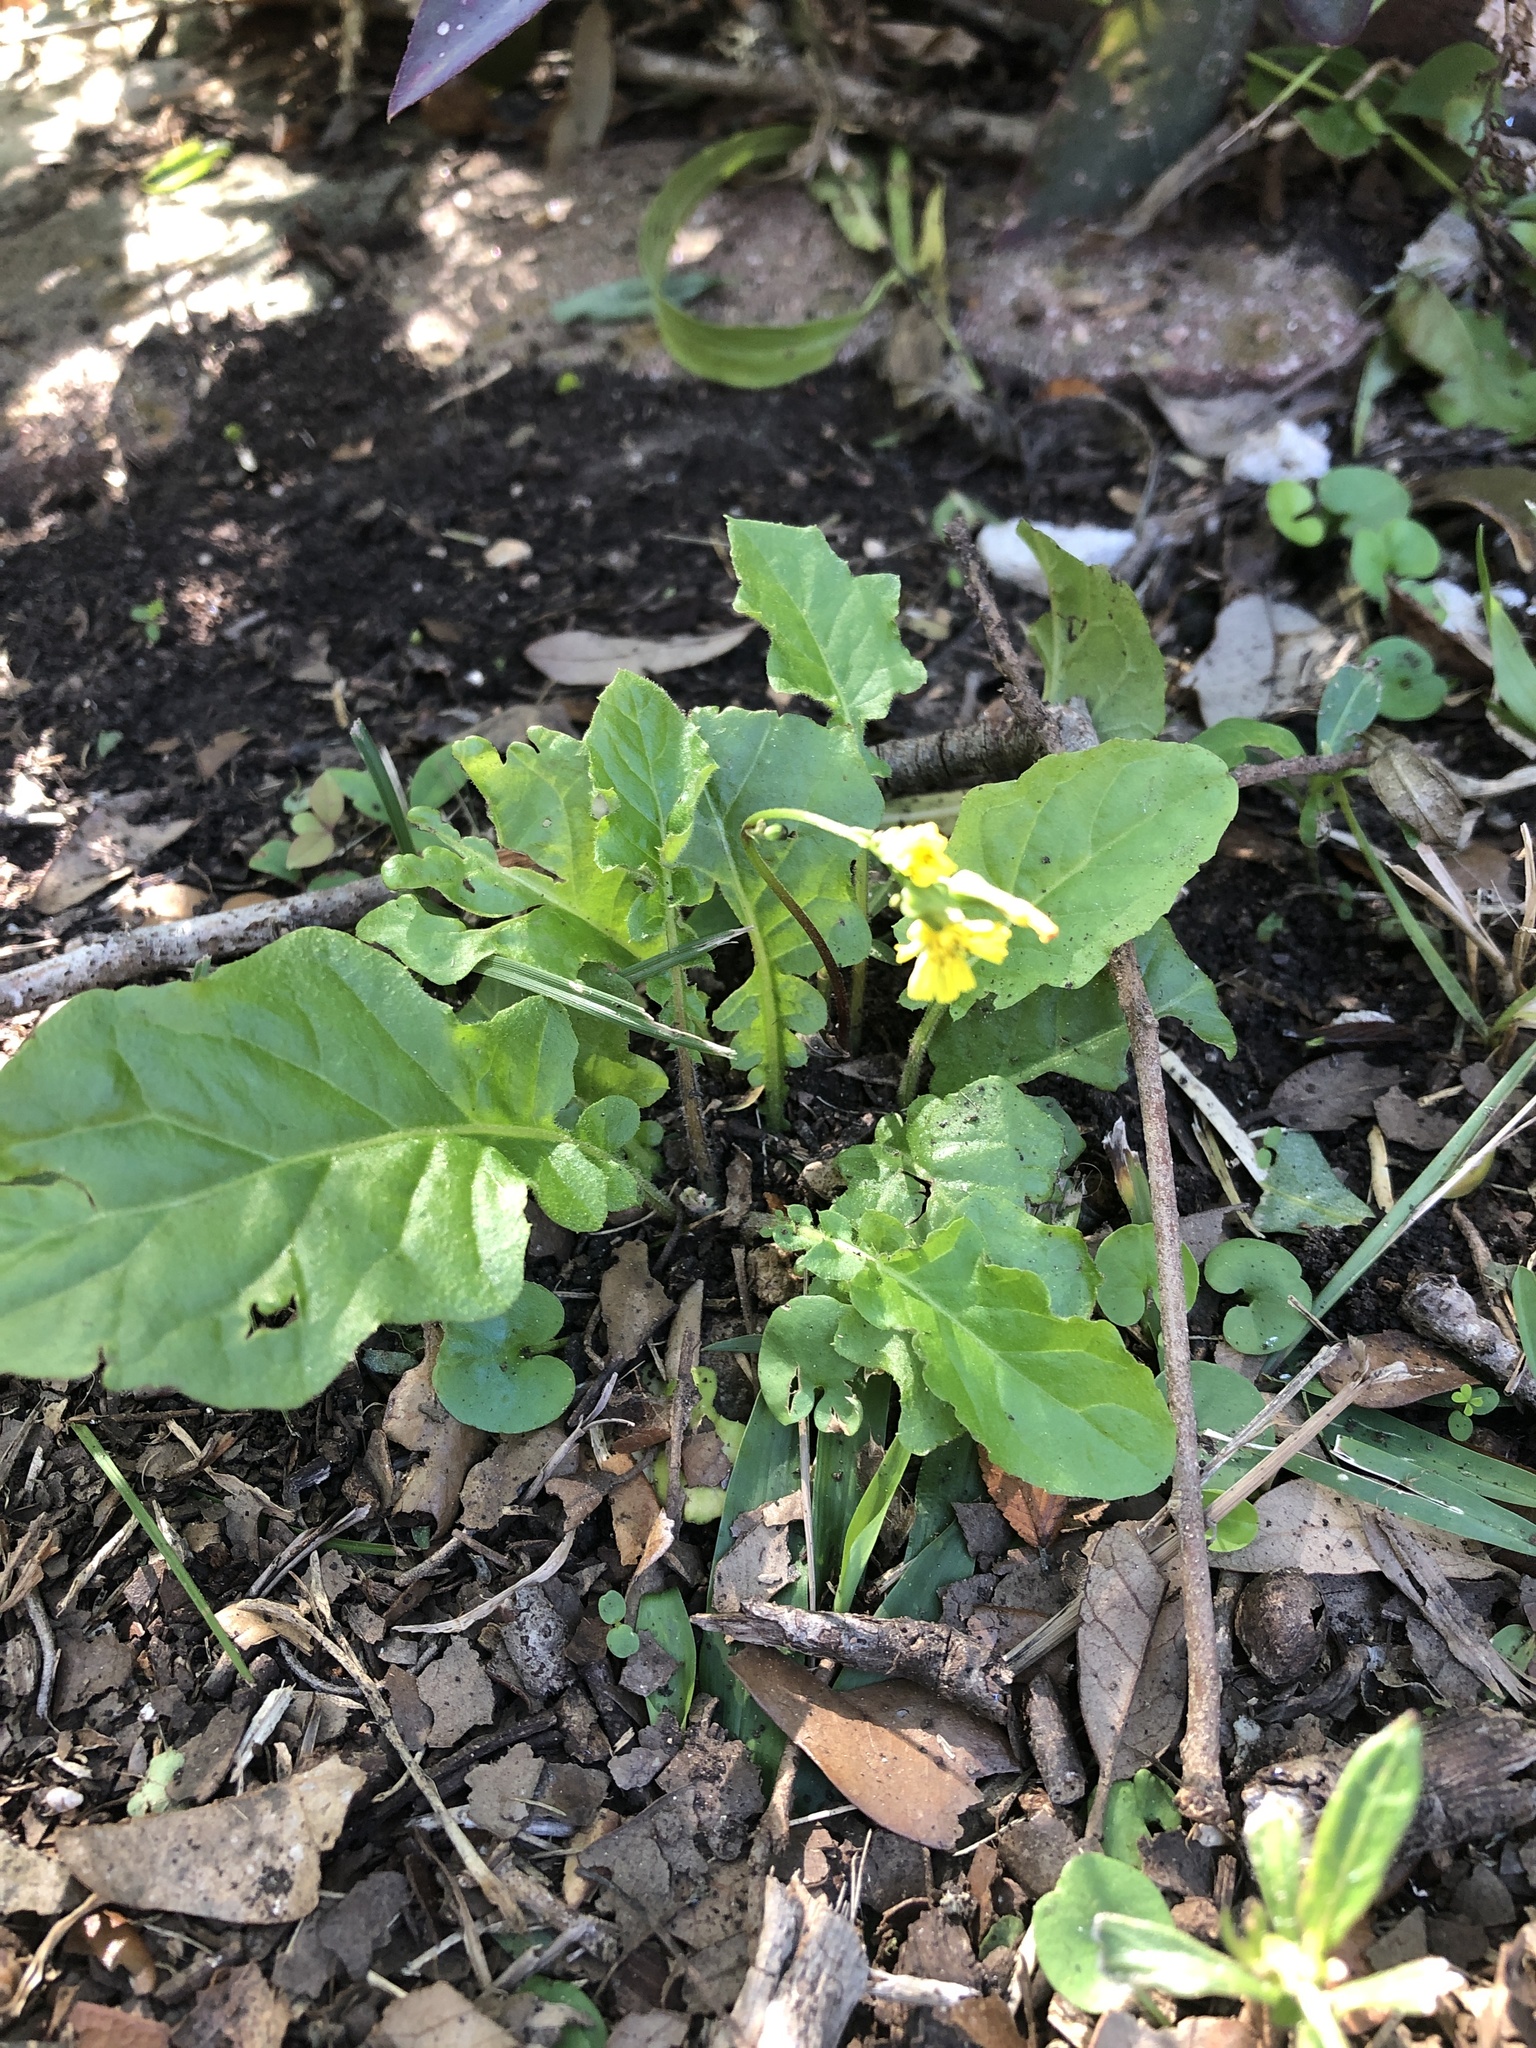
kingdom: Plantae
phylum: Tracheophyta
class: Magnoliopsida
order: Asterales
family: Asteraceae
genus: Youngia
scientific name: Youngia japonica
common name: Oriental false hawksbeard
